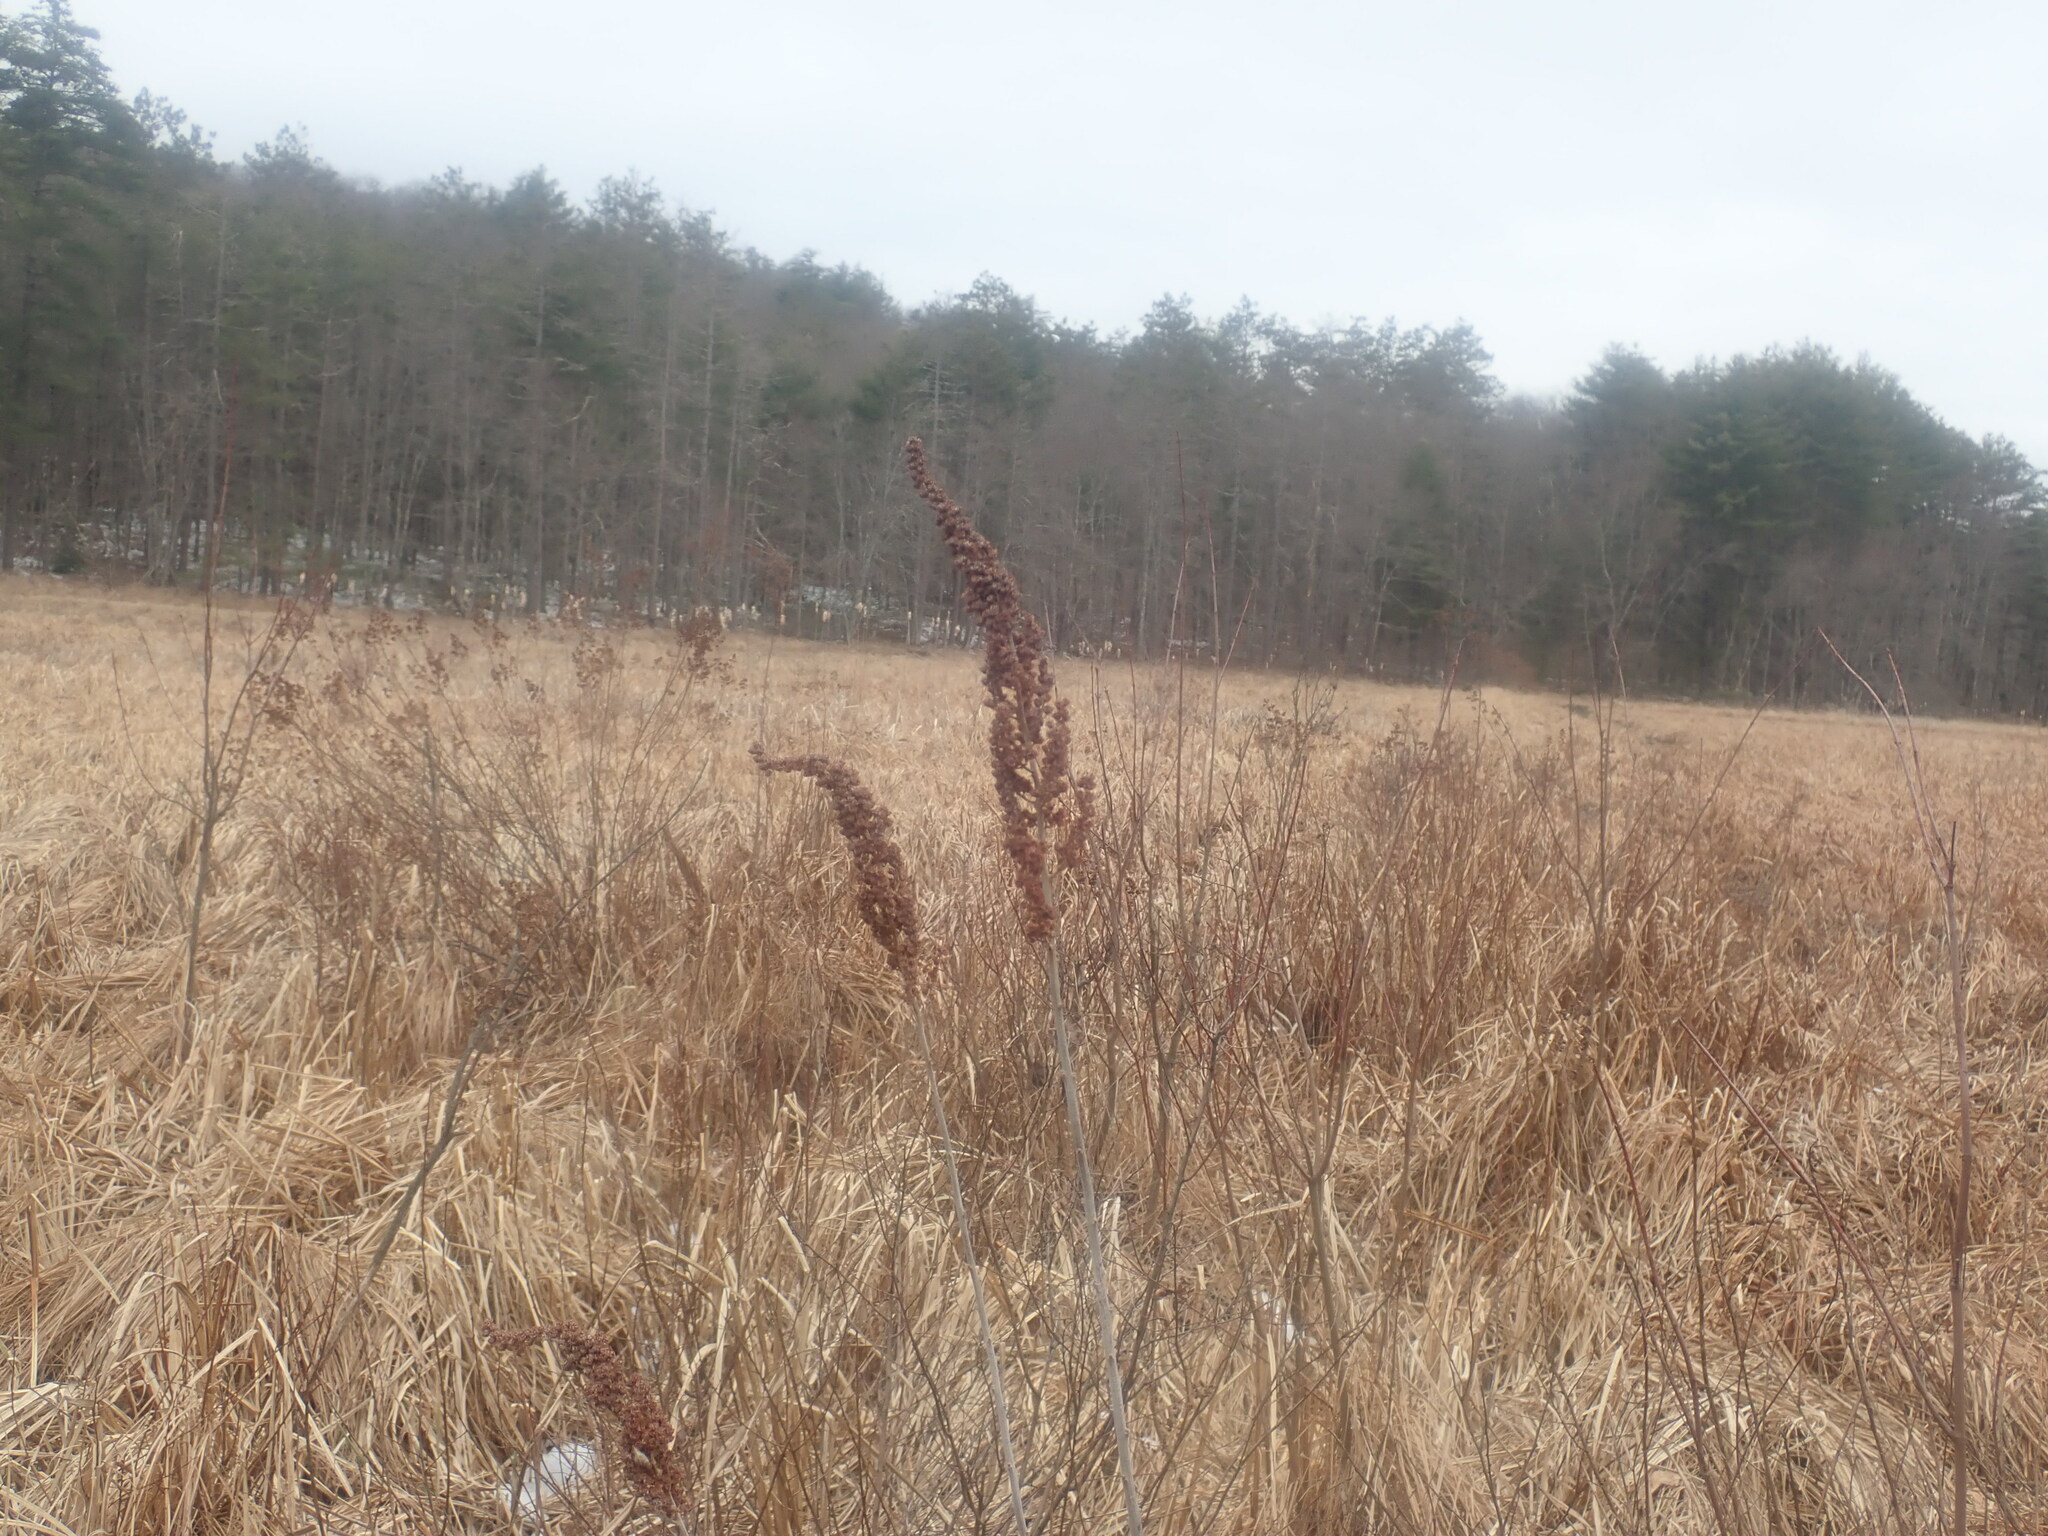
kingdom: Plantae
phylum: Tracheophyta
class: Magnoliopsida
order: Rosales
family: Rosaceae
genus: Spiraea
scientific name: Spiraea tomentosa
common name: Hardhack
